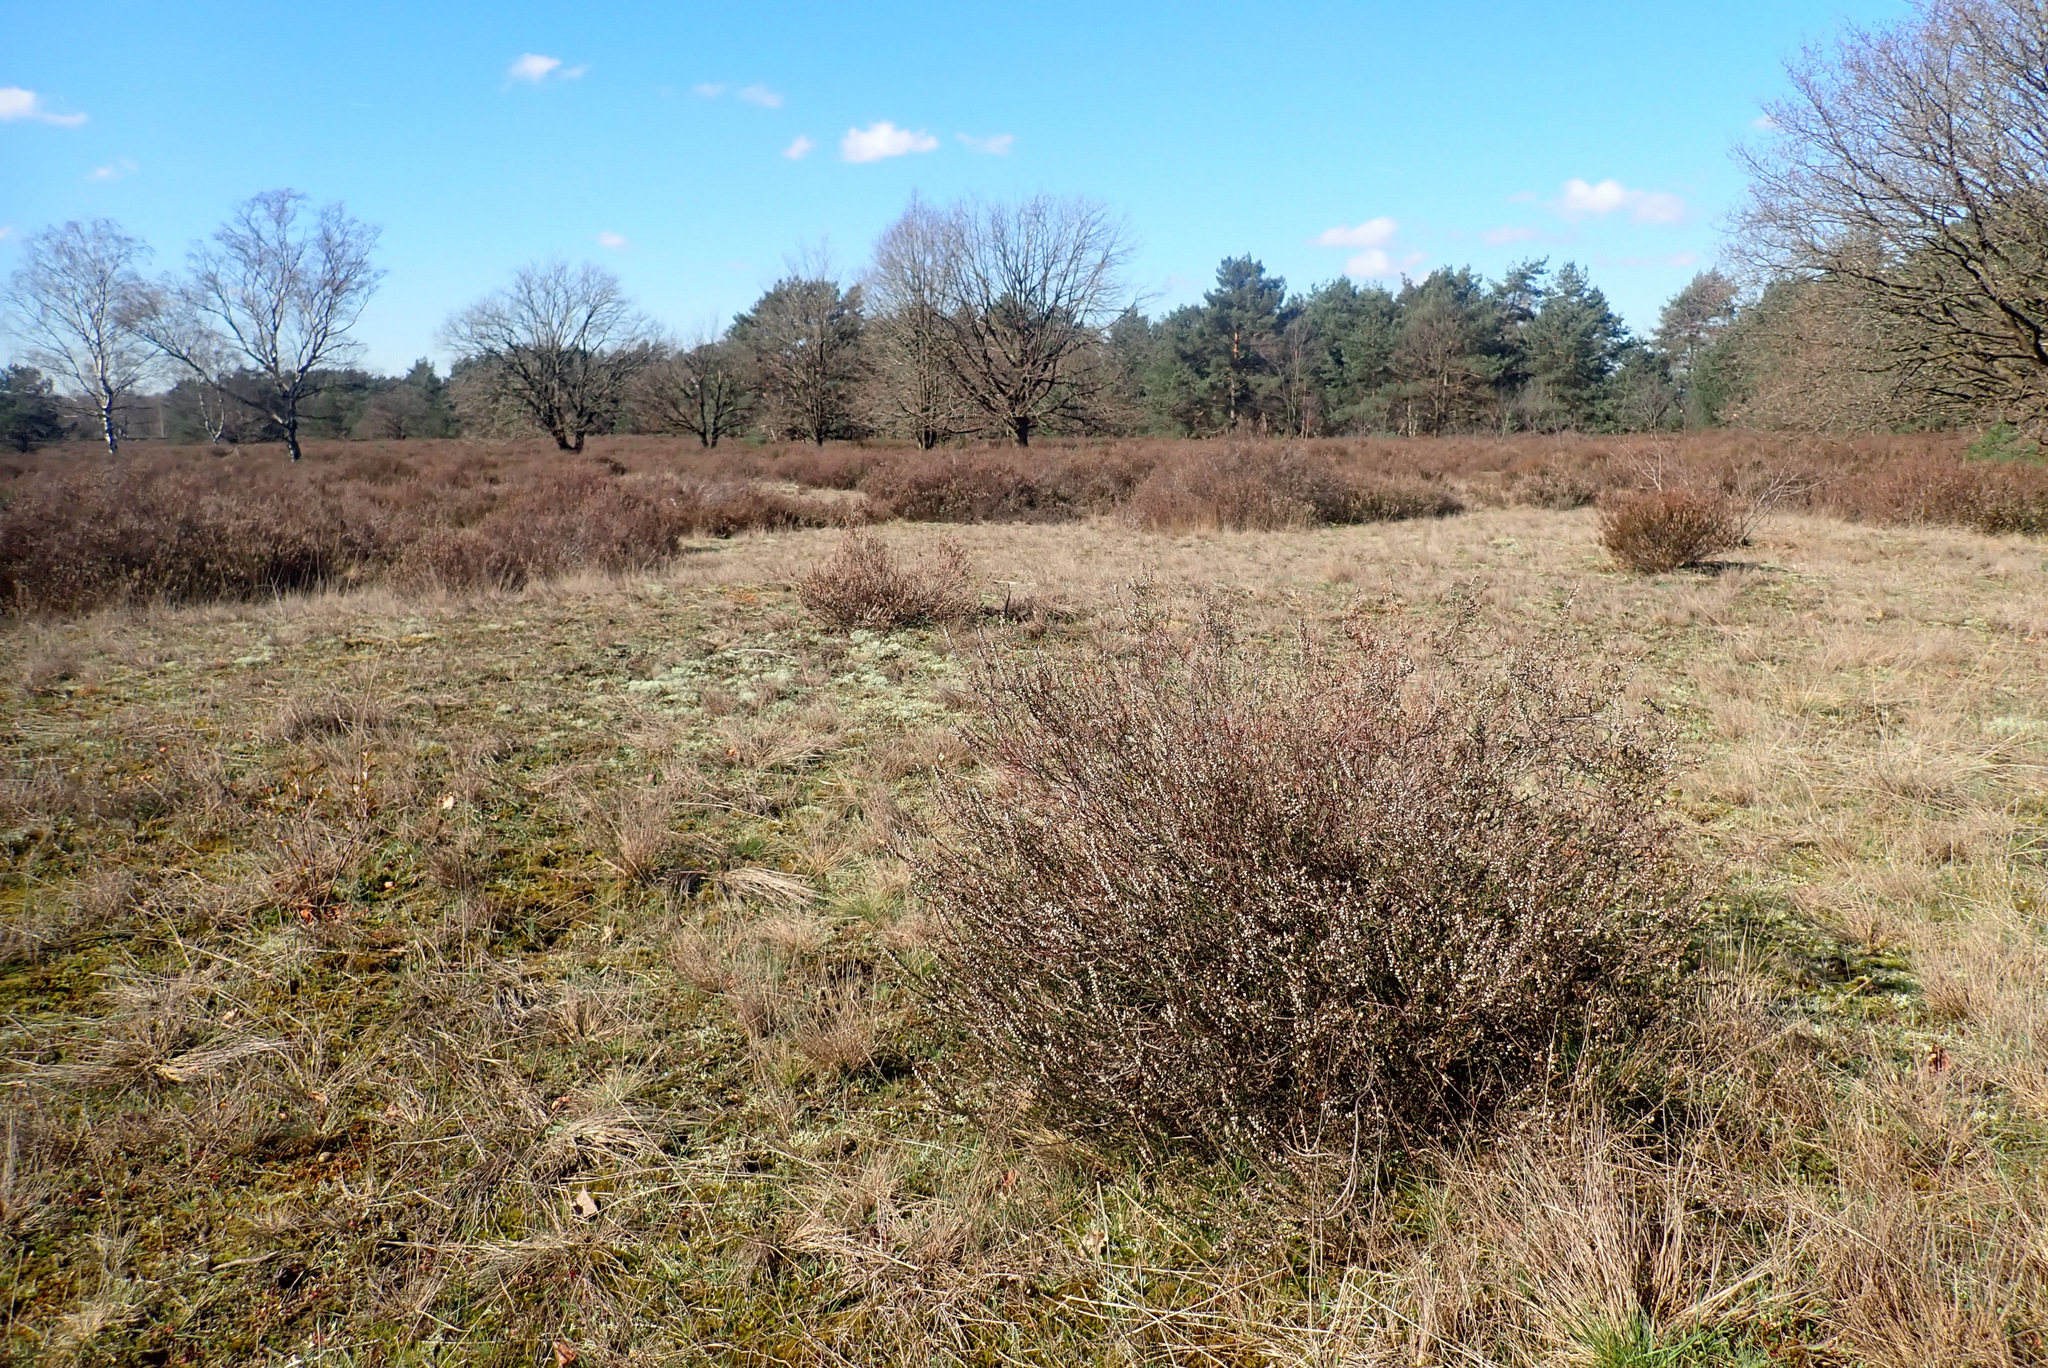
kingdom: Plantae
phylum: Tracheophyta
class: Magnoliopsida
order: Ericales
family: Ericaceae
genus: Calluna
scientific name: Calluna vulgaris
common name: Heather
